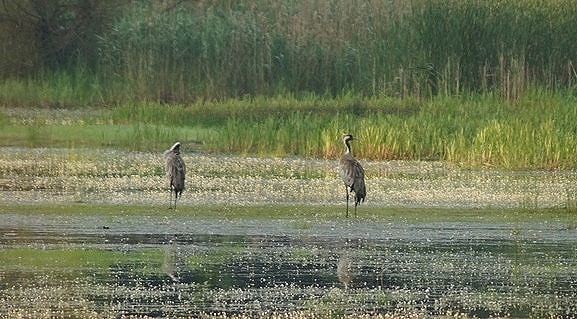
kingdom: Animalia
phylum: Chordata
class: Aves
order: Gruiformes
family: Gruidae
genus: Grus
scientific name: Grus grus
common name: Common crane
